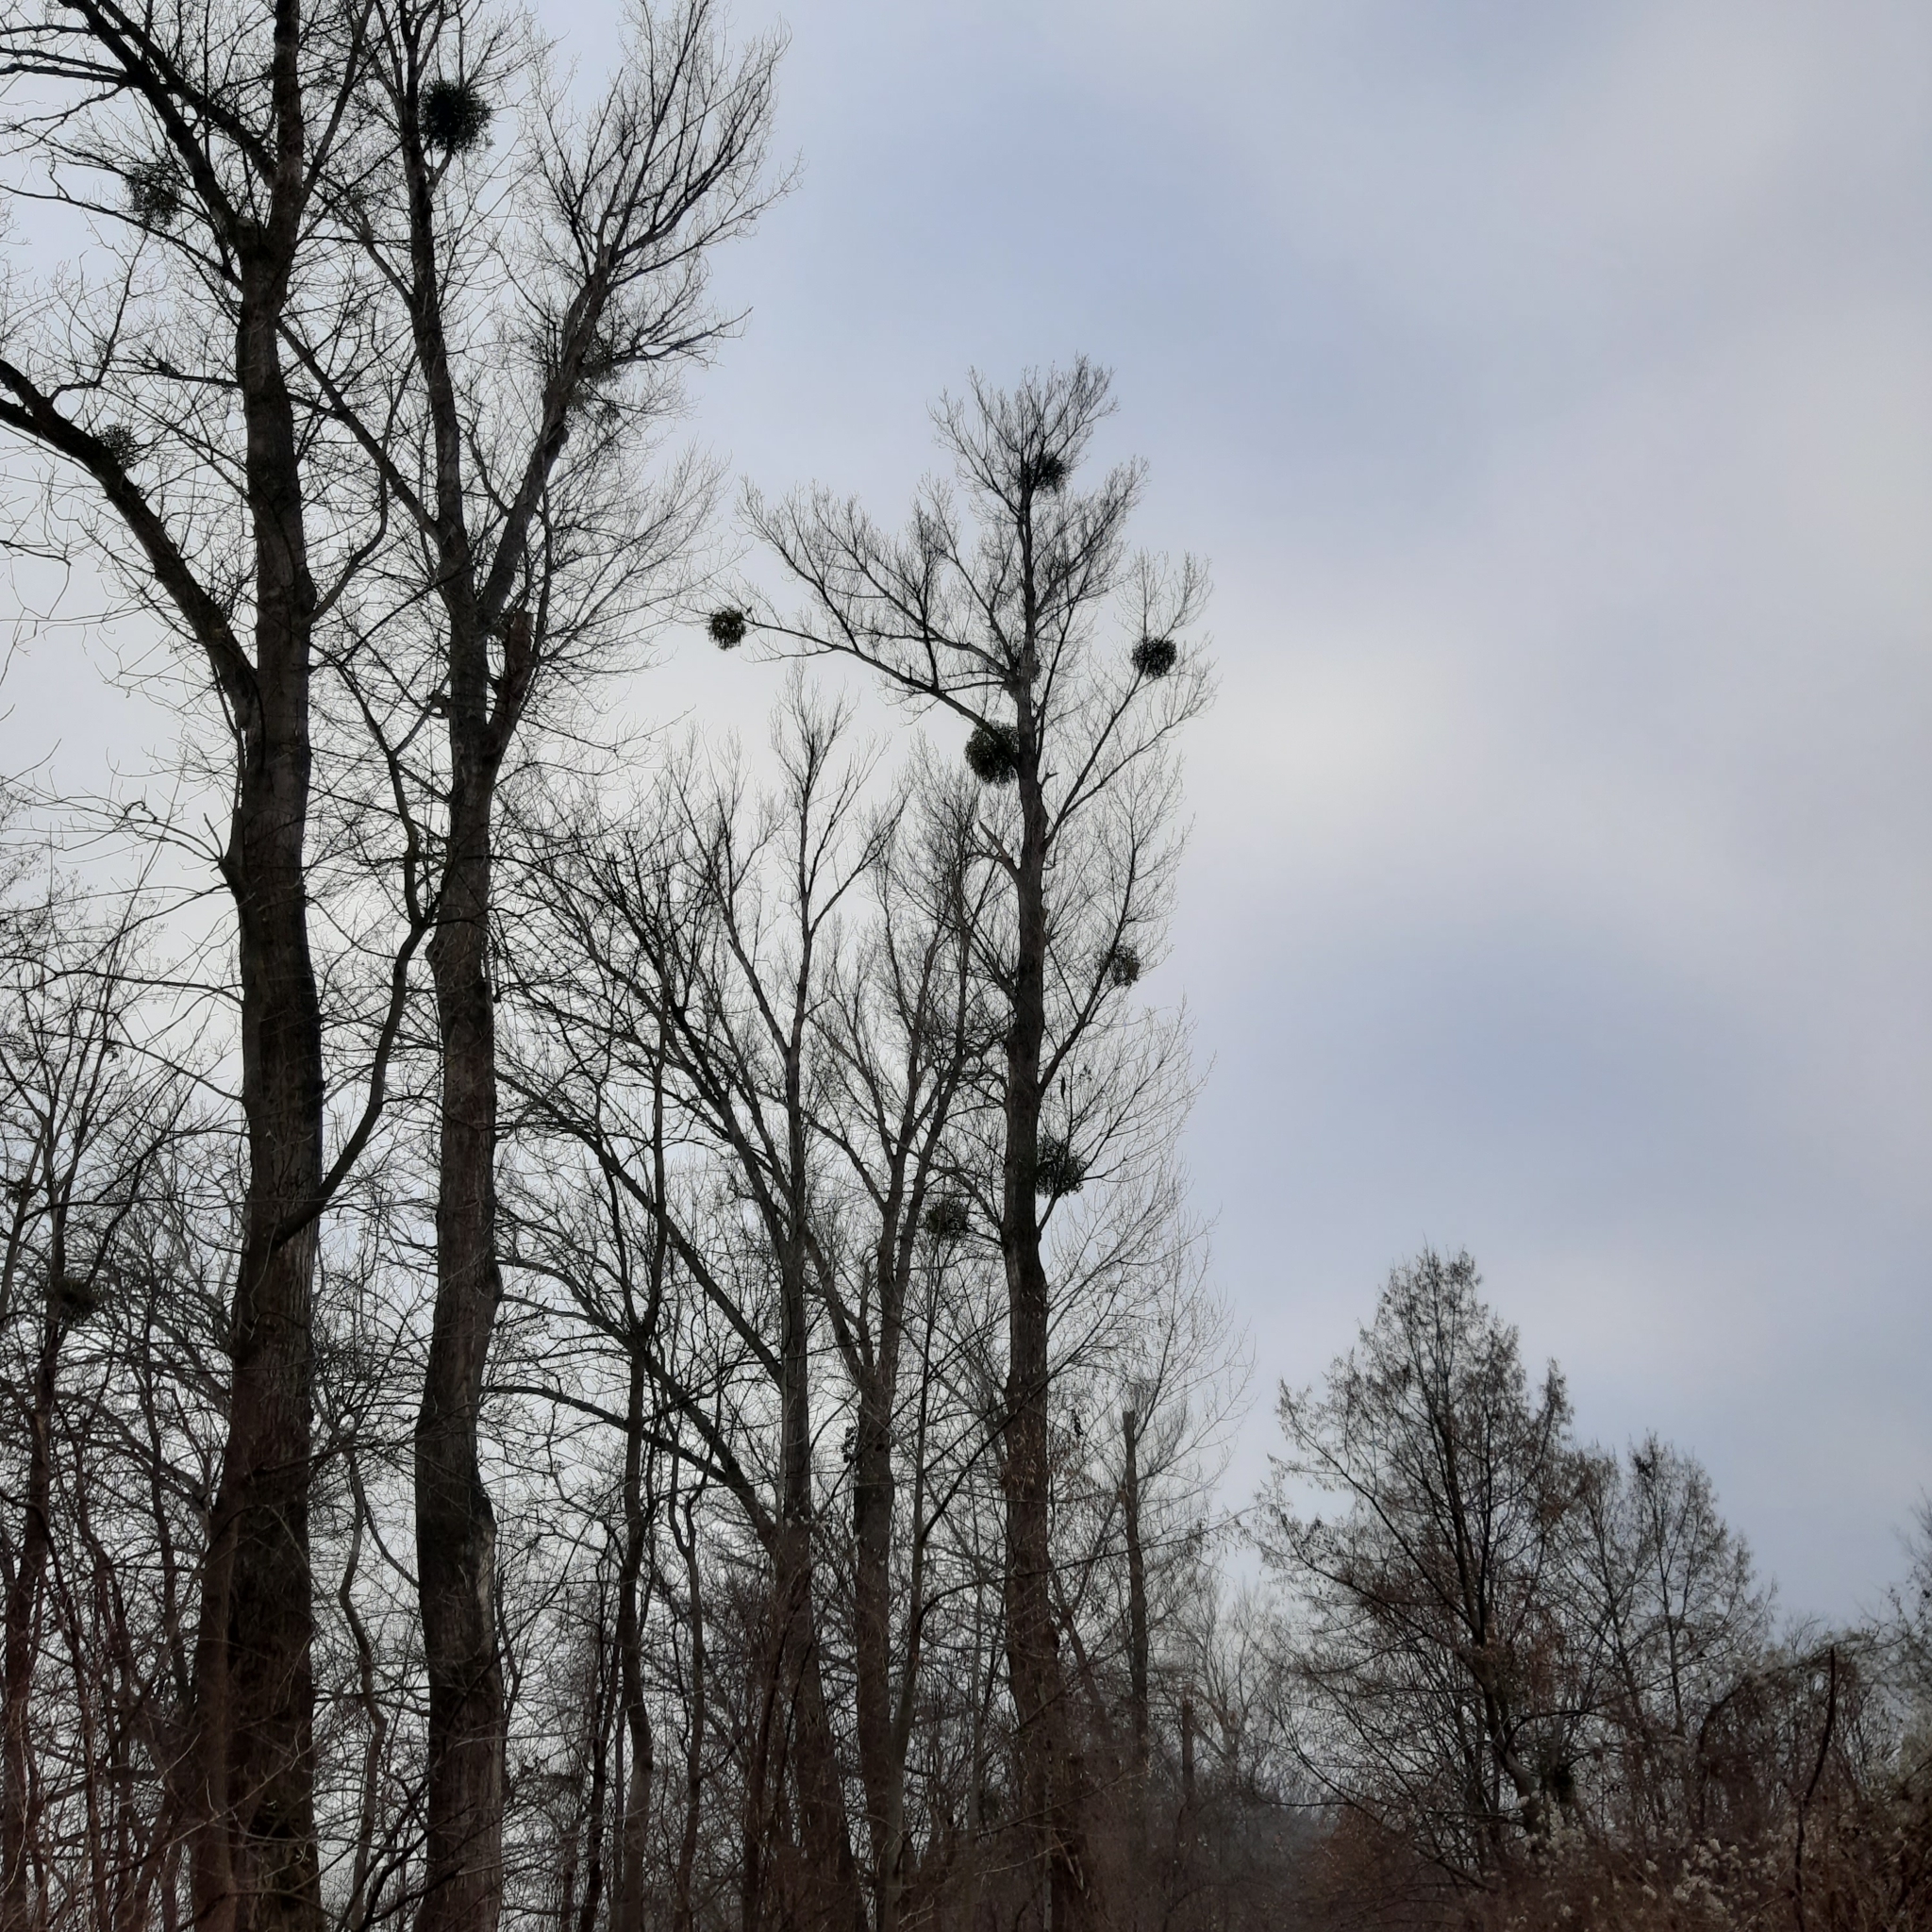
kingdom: Plantae
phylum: Tracheophyta
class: Magnoliopsida
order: Santalales
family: Viscaceae
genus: Viscum
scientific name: Viscum album
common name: Mistletoe
